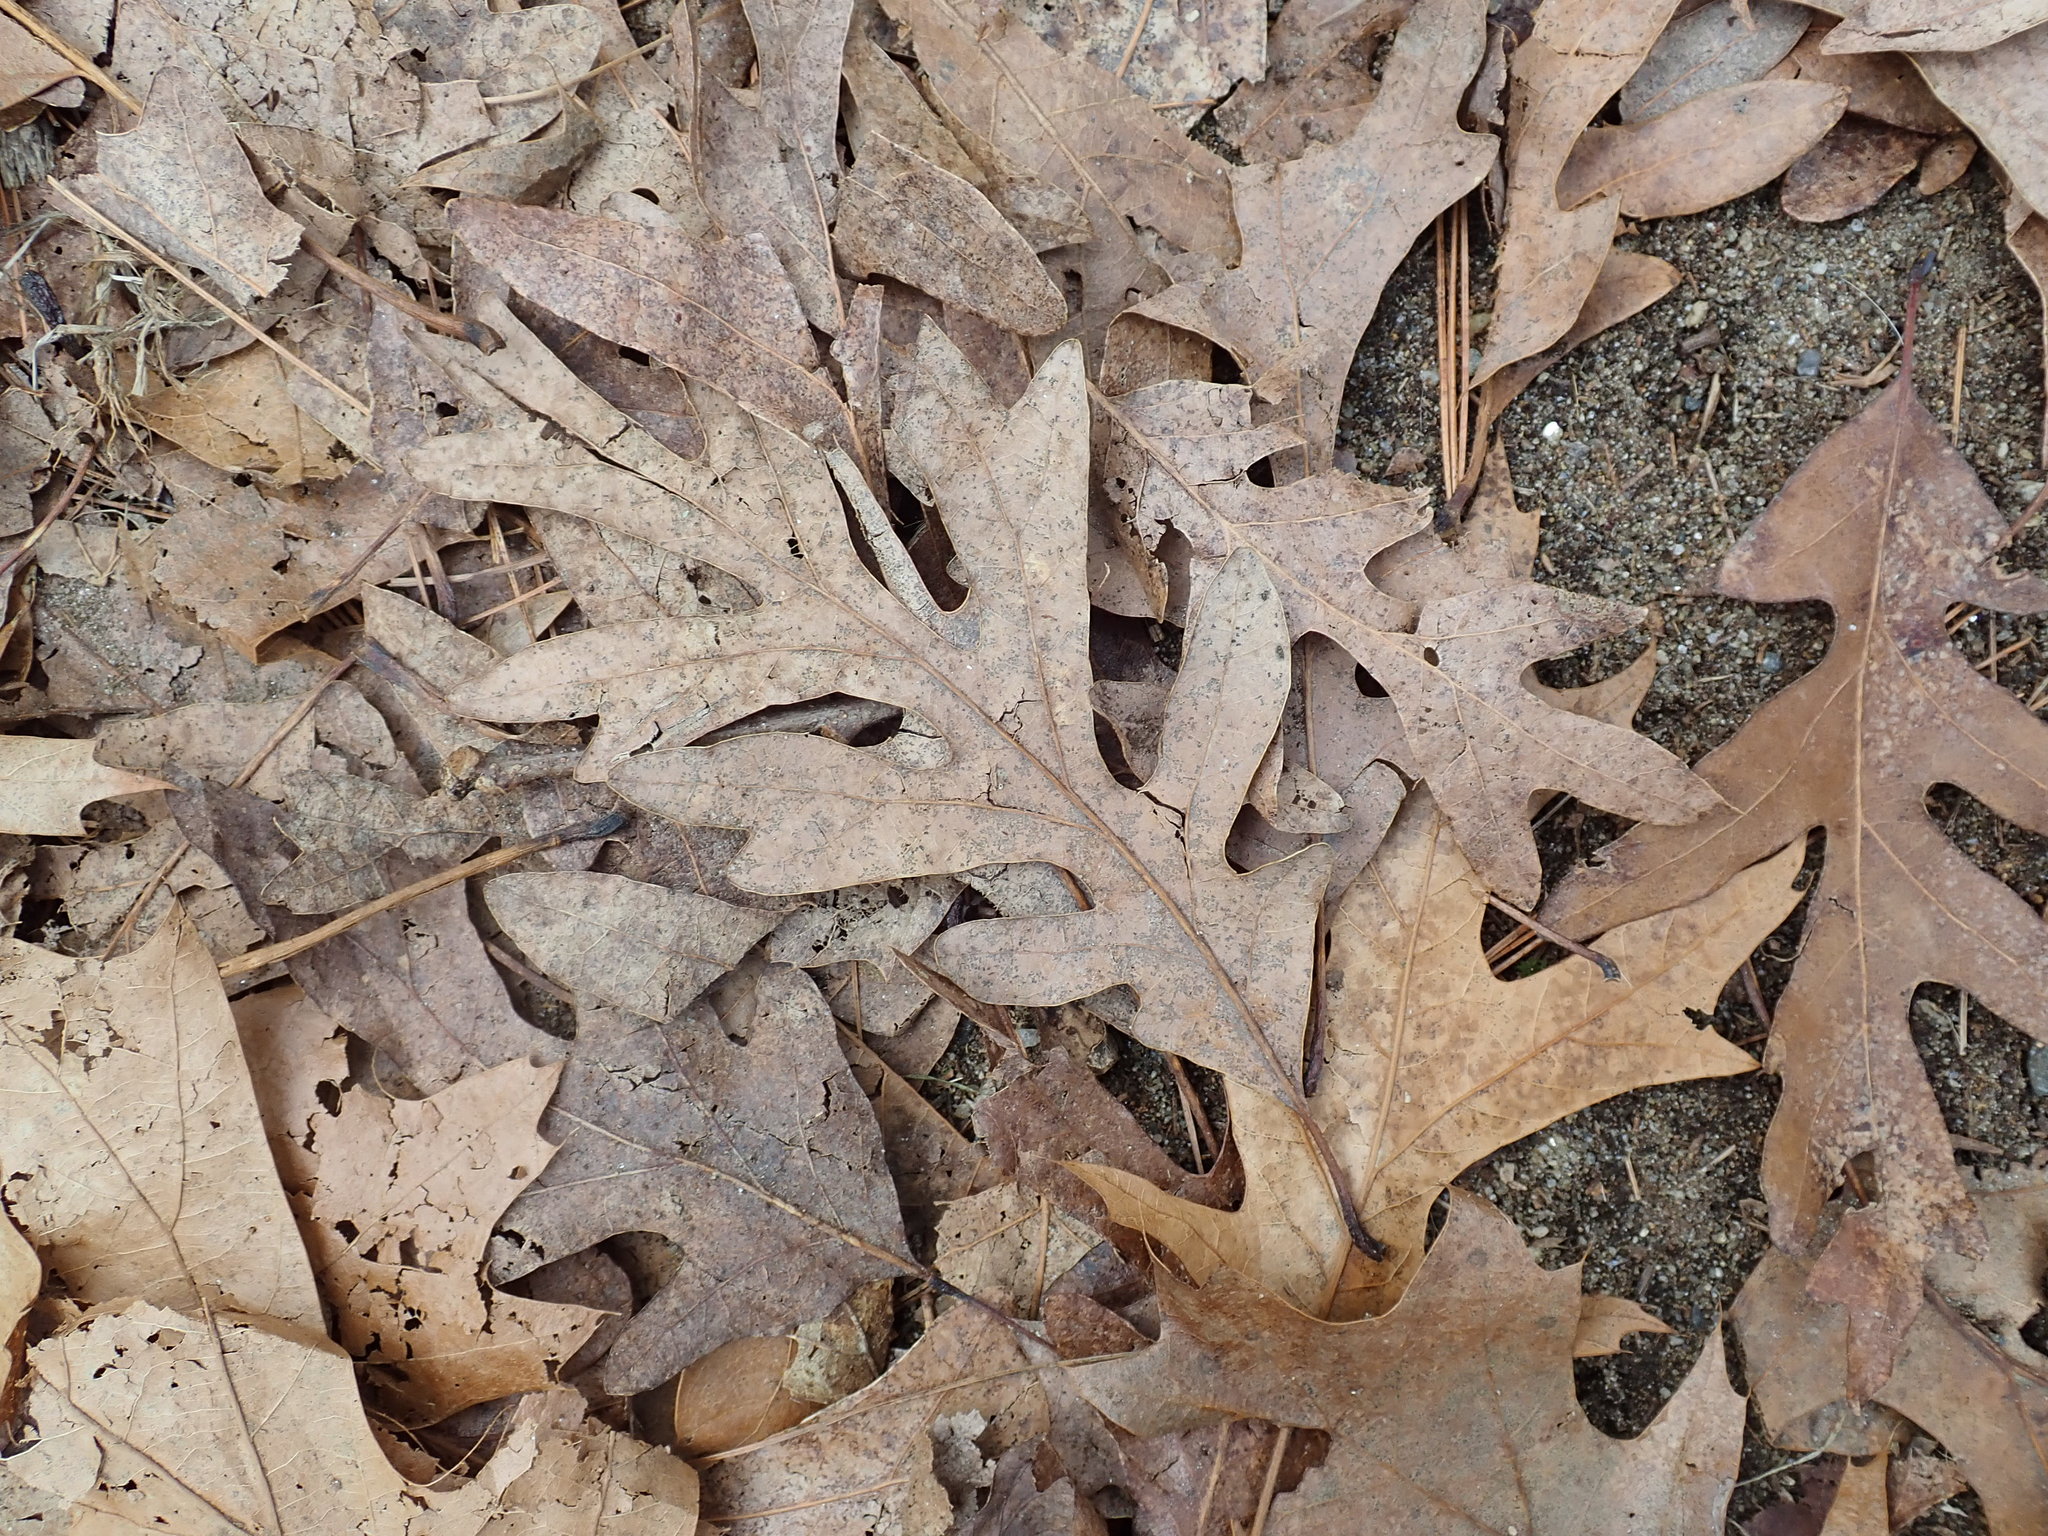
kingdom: Plantae
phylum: Tracheophyta
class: Magnoliopsida
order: Fagales
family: Fagaceae
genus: Quercus
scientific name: Quercus alba
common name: White oak
